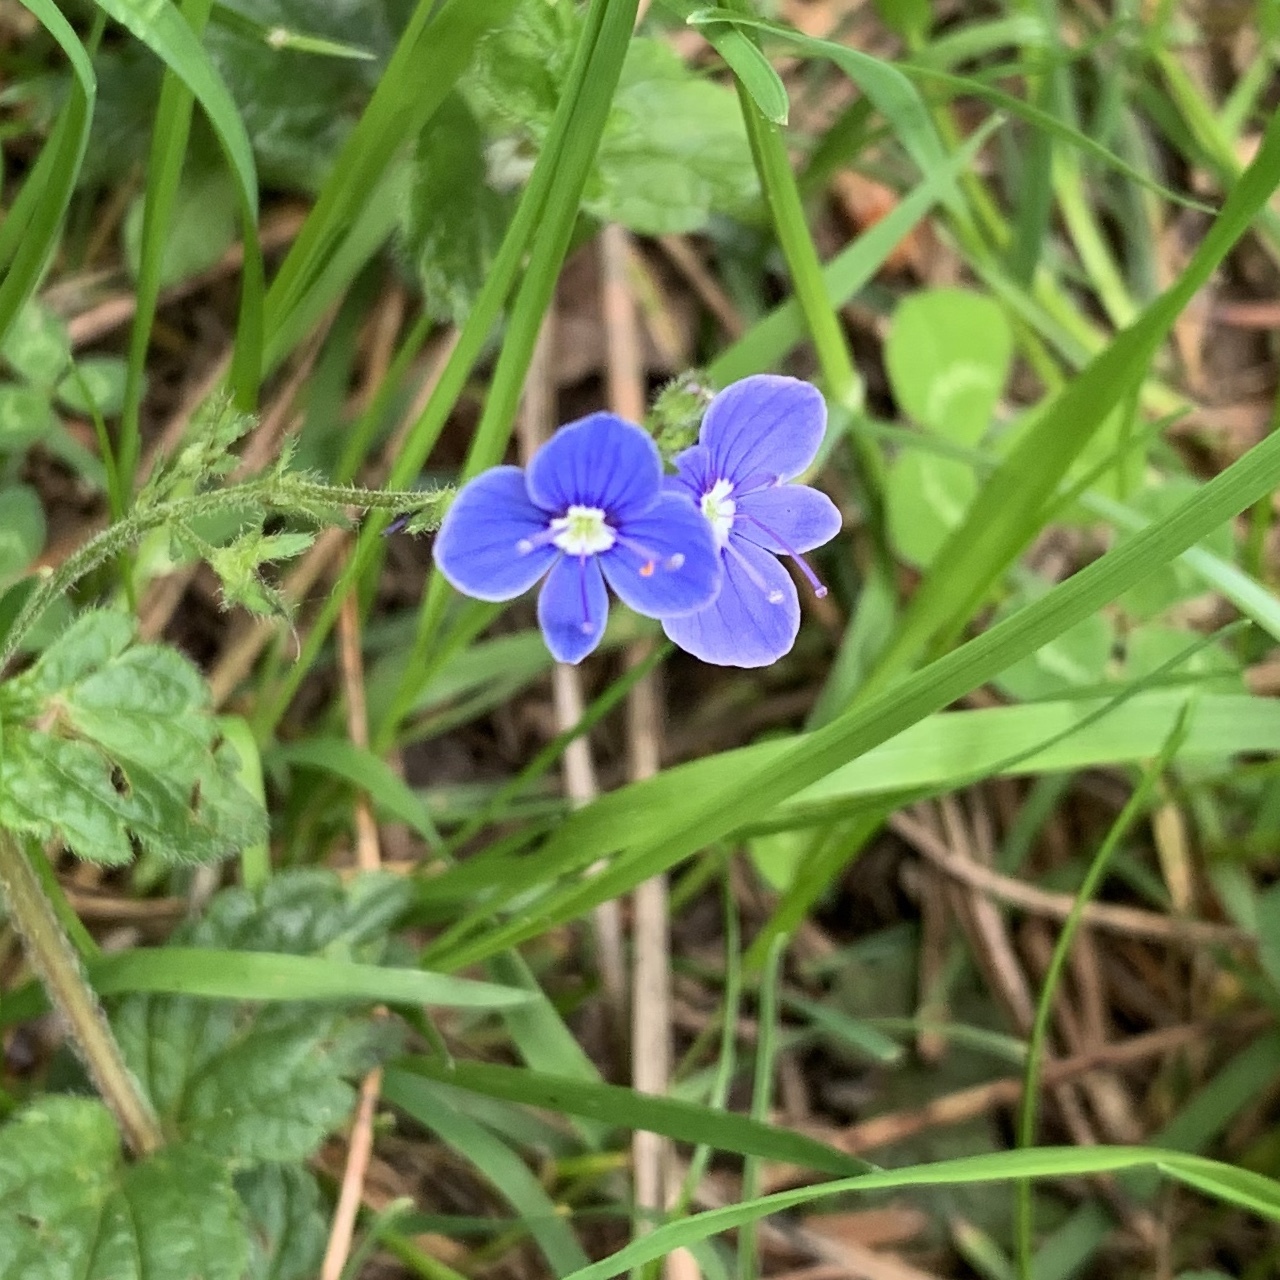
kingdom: Plantae
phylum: Tracheophyta
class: Magnoliopsida
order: Lamiales
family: Plantaginaceae
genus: Veronica
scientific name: Veronica chamaedrys
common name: Germander speedwell
